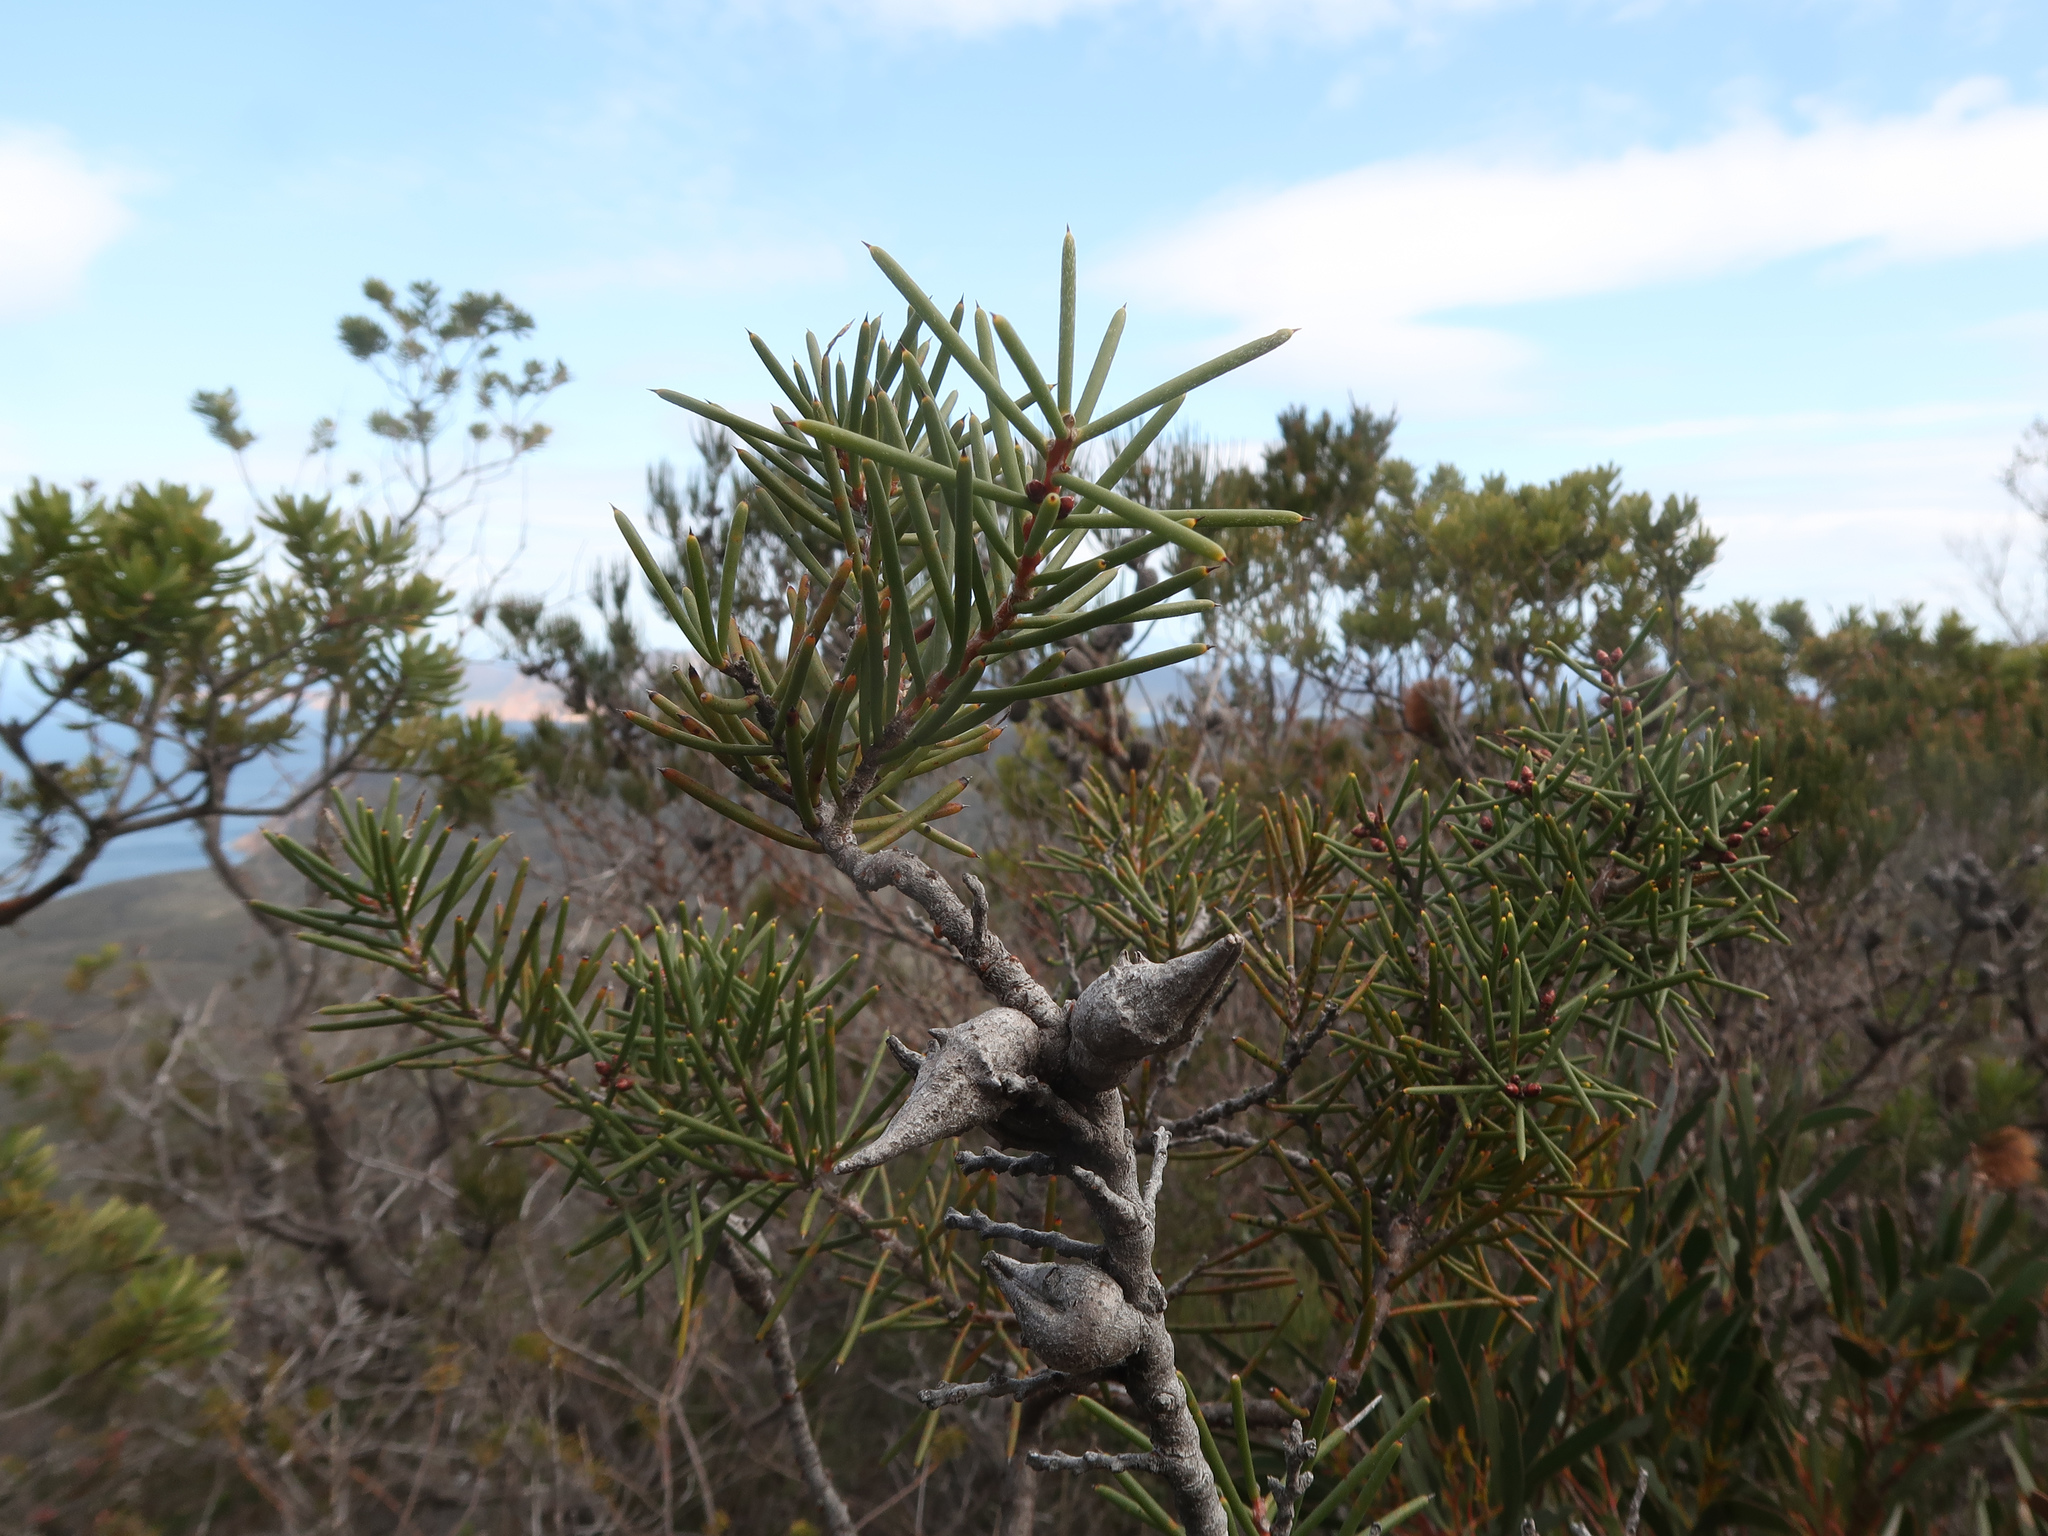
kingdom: Plantae
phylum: Tracheophyta
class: Magnoliopsida
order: Proteales
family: Proteaceae
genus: Hakea
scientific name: Hakea teretifolia
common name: Dagger hakea
